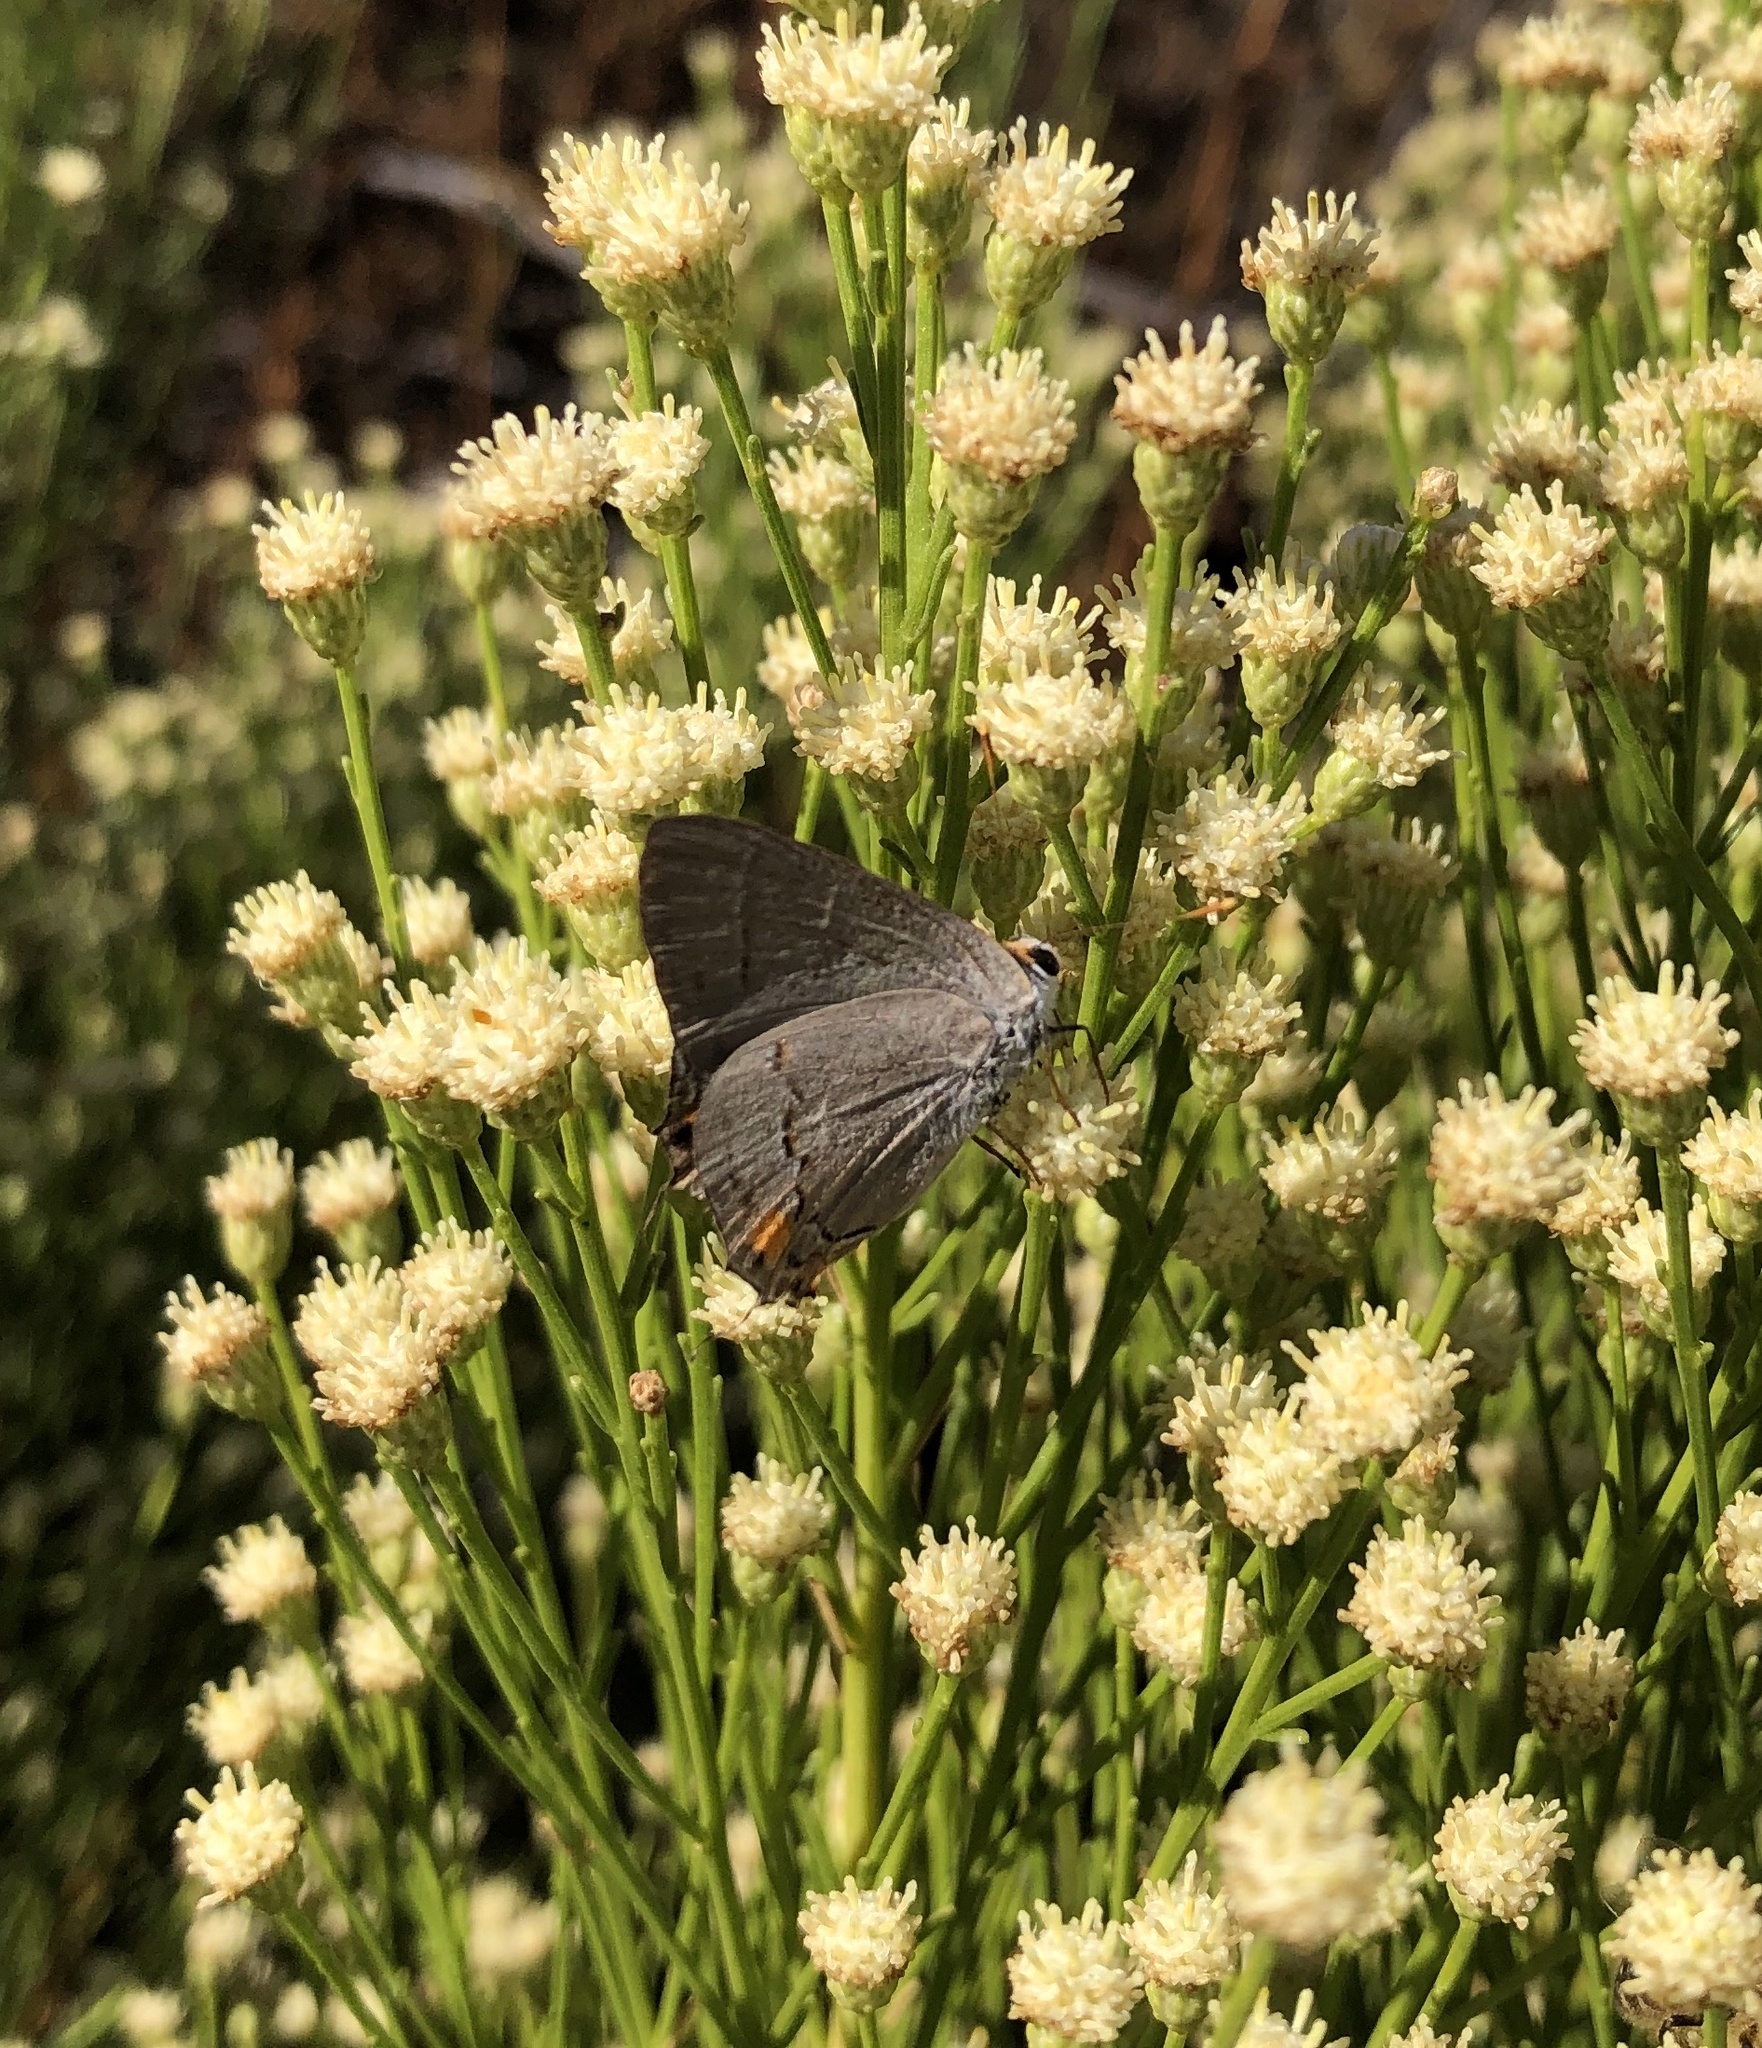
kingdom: Animalia
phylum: Arthropoda
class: Insecta
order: Lepidoptera
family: Lycaenidae
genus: Strymon
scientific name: Strymon melinus
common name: Gray hairstreak
